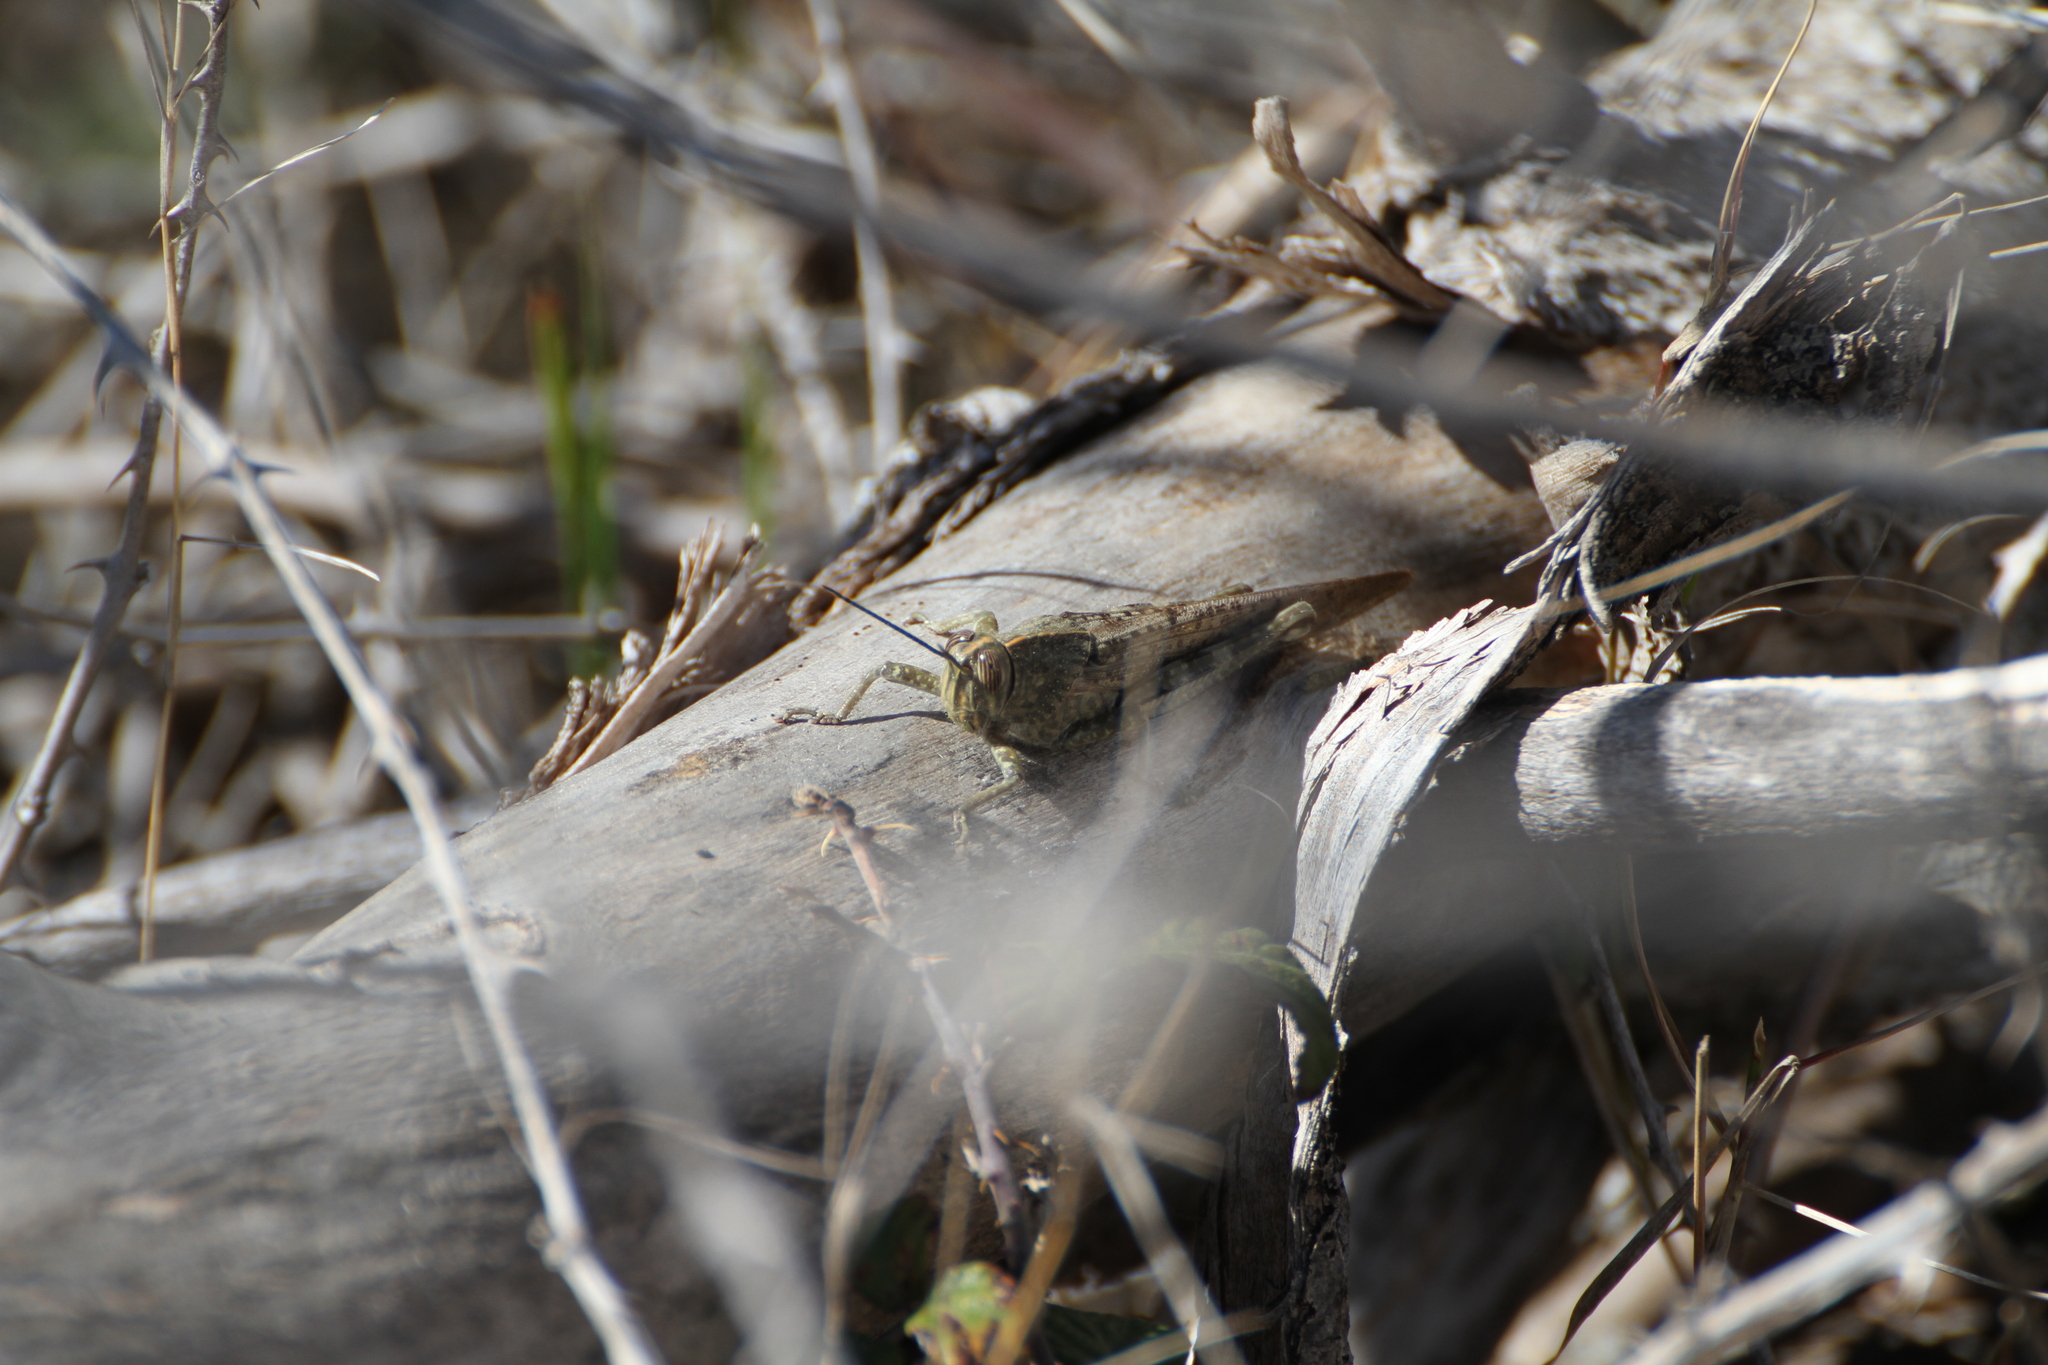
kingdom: Animalia
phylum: Arthropoda
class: Insecta
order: Orthoptera
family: Acrididae
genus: Anacridium
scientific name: Anacridium aegyptium
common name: Egyptian grasshopper
